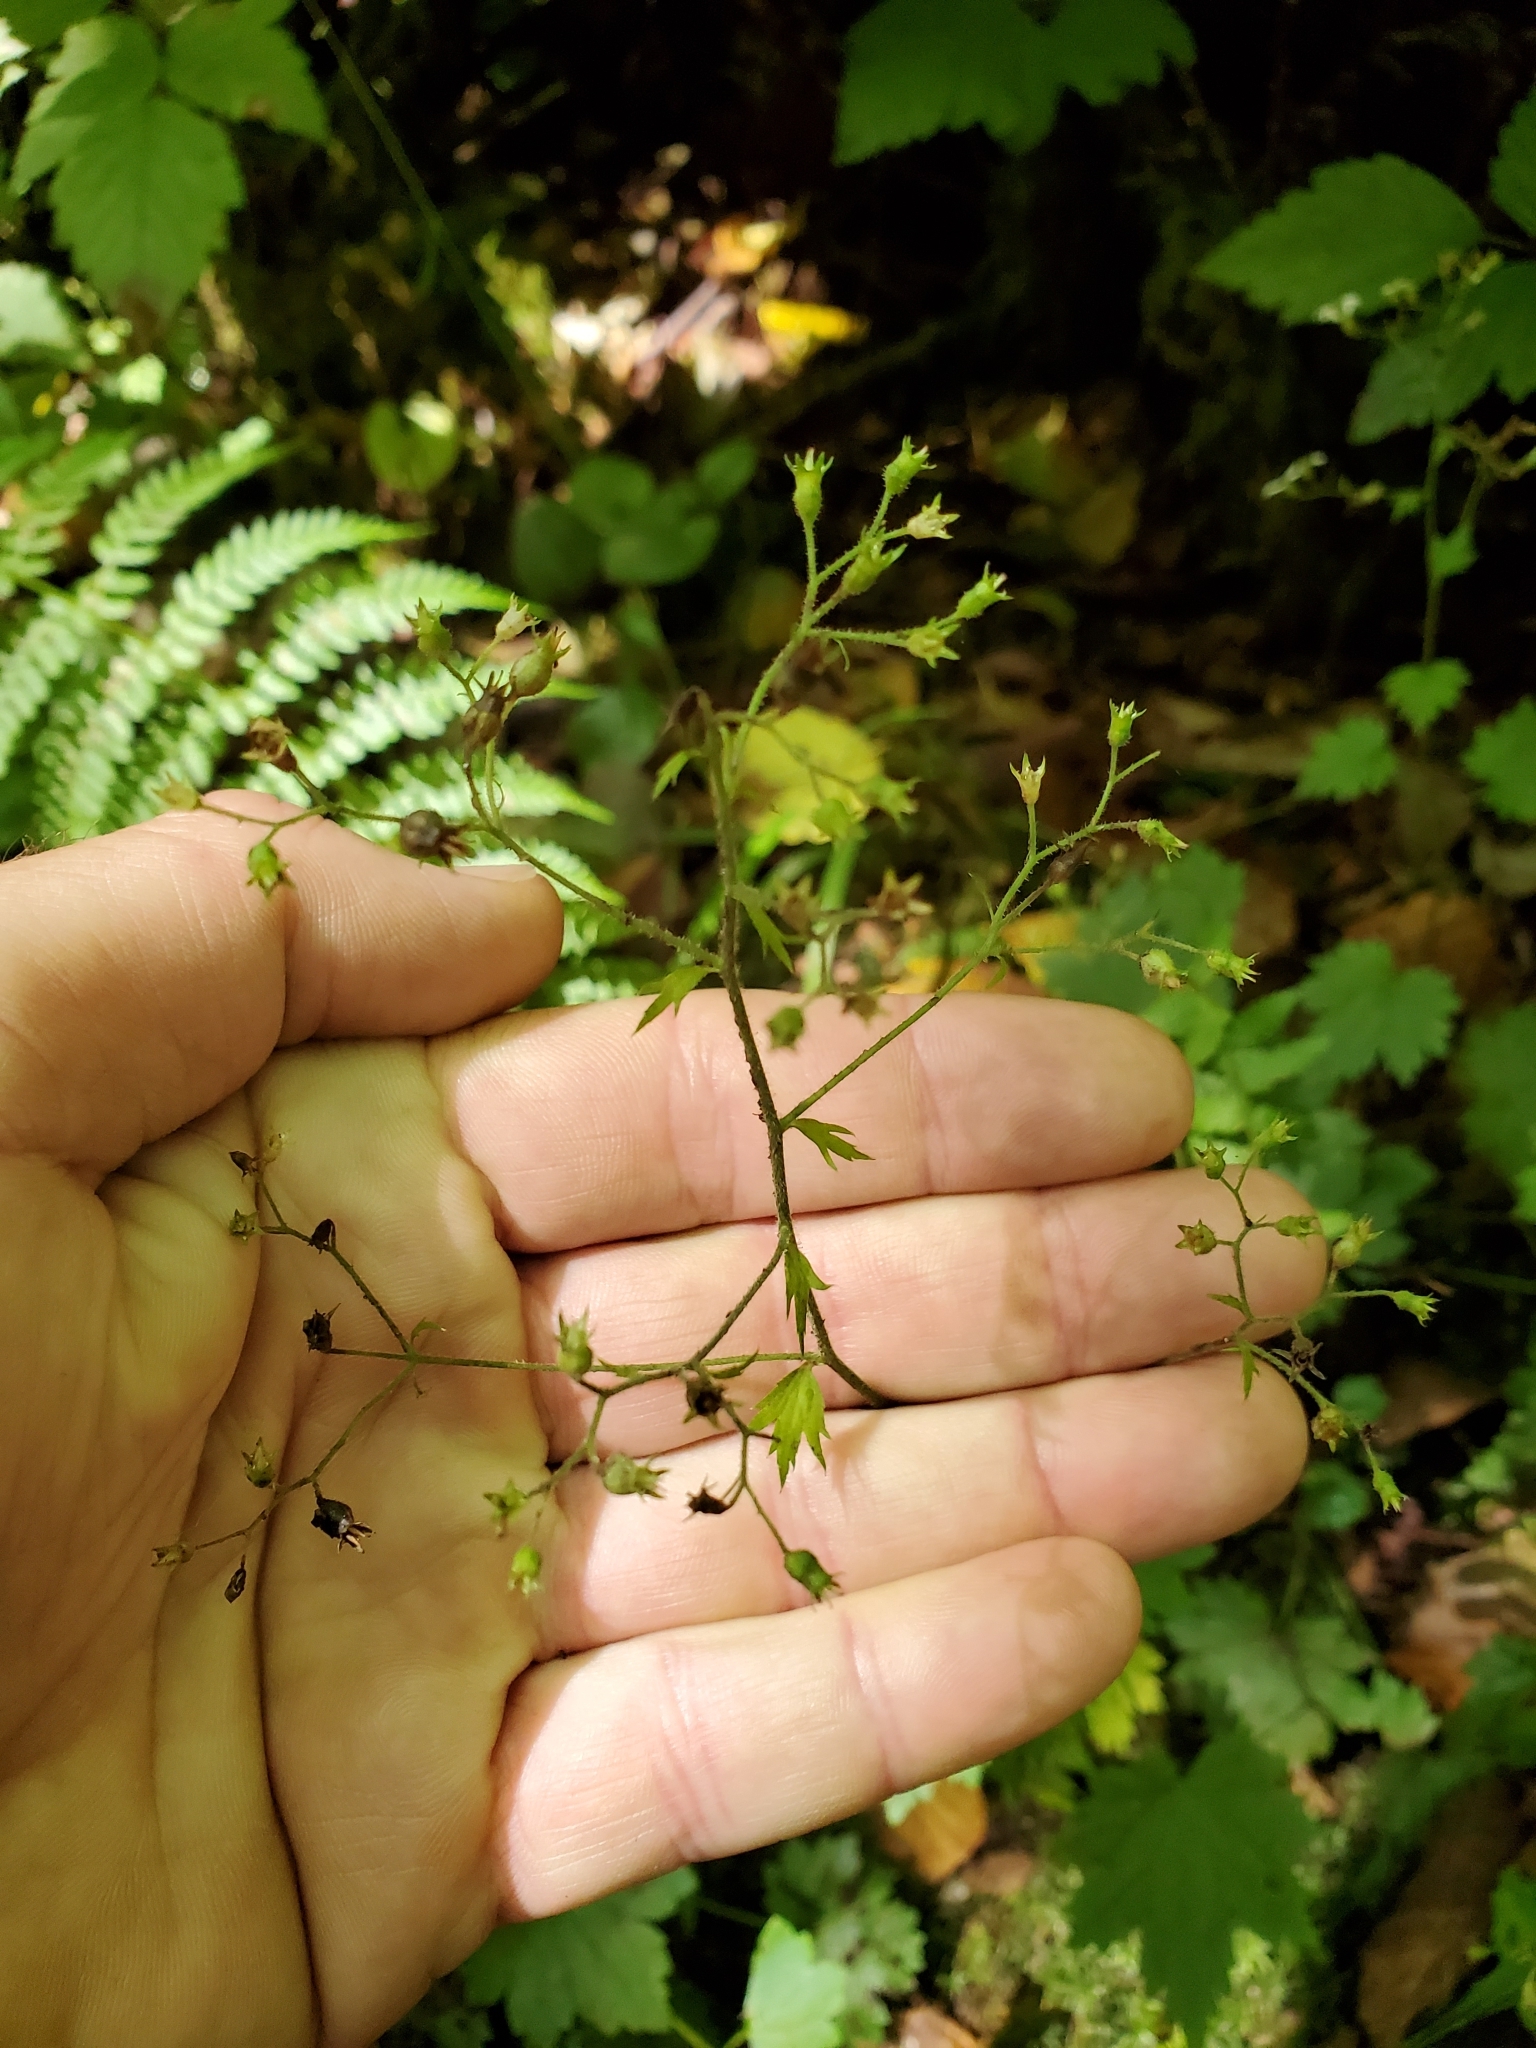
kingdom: Plantae
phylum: Tracheophyta
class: Magnoliopsida
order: Saxifragales
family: Saxifragaceae
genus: Boykinia
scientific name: Boykinia occidentalis
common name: Coast boykinia
